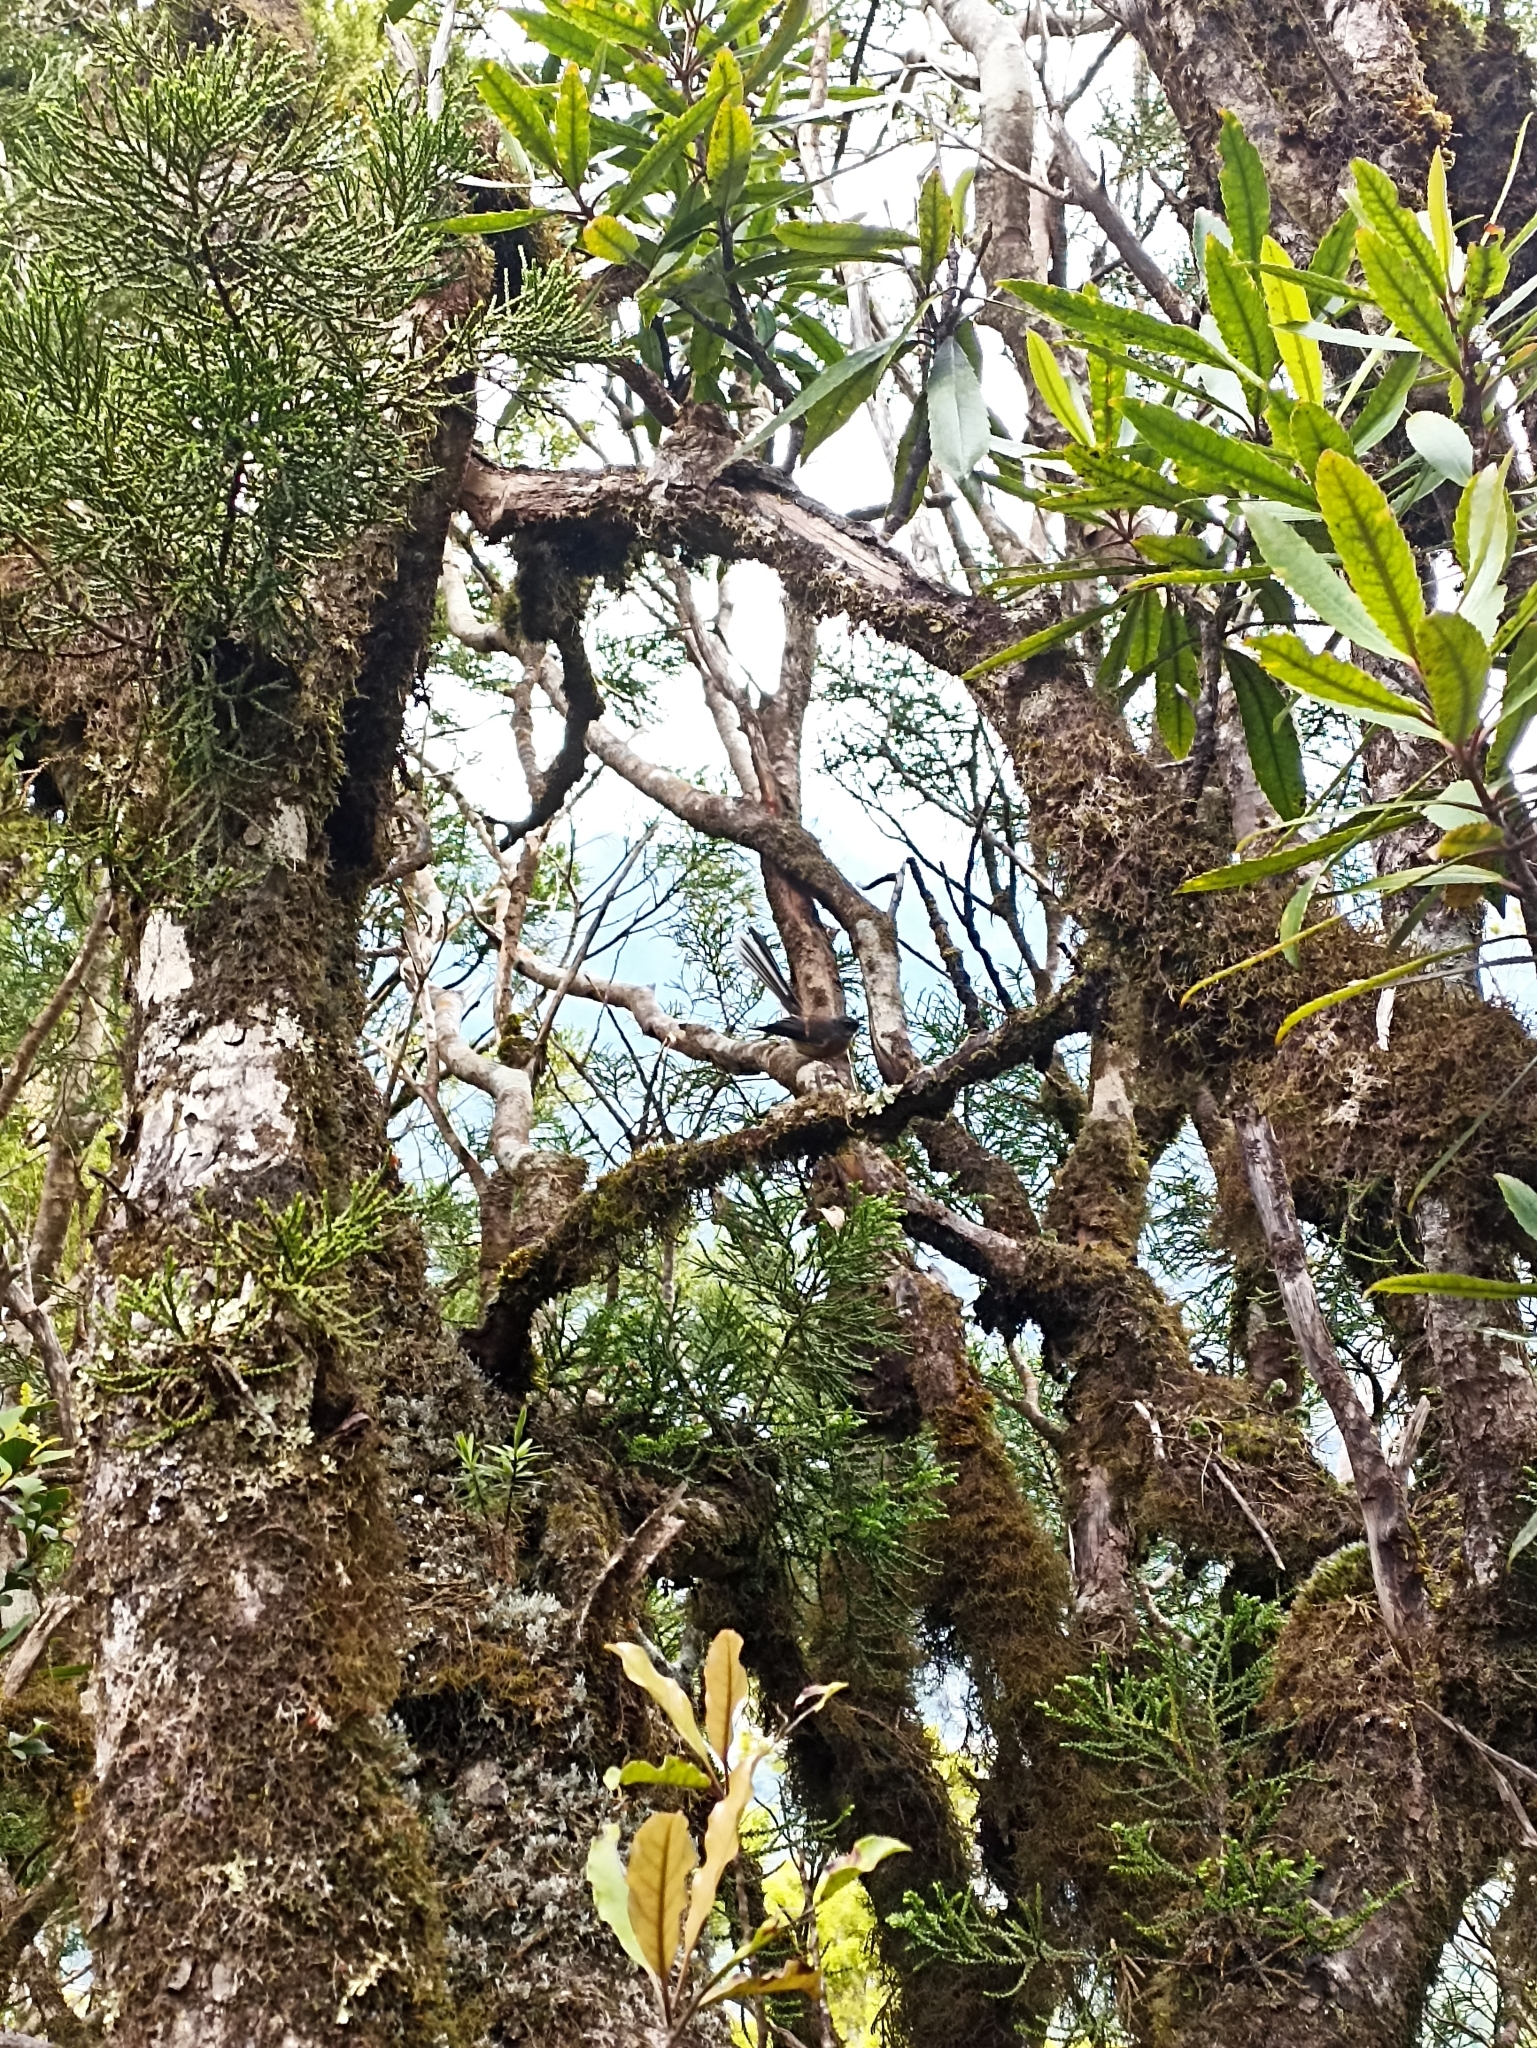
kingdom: Animalia
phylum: Chordata
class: Aves
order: Passeriformes
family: Rhipiduridae
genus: Rhipidura
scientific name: Rhipidura fuliginosa
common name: New zealand fantail
